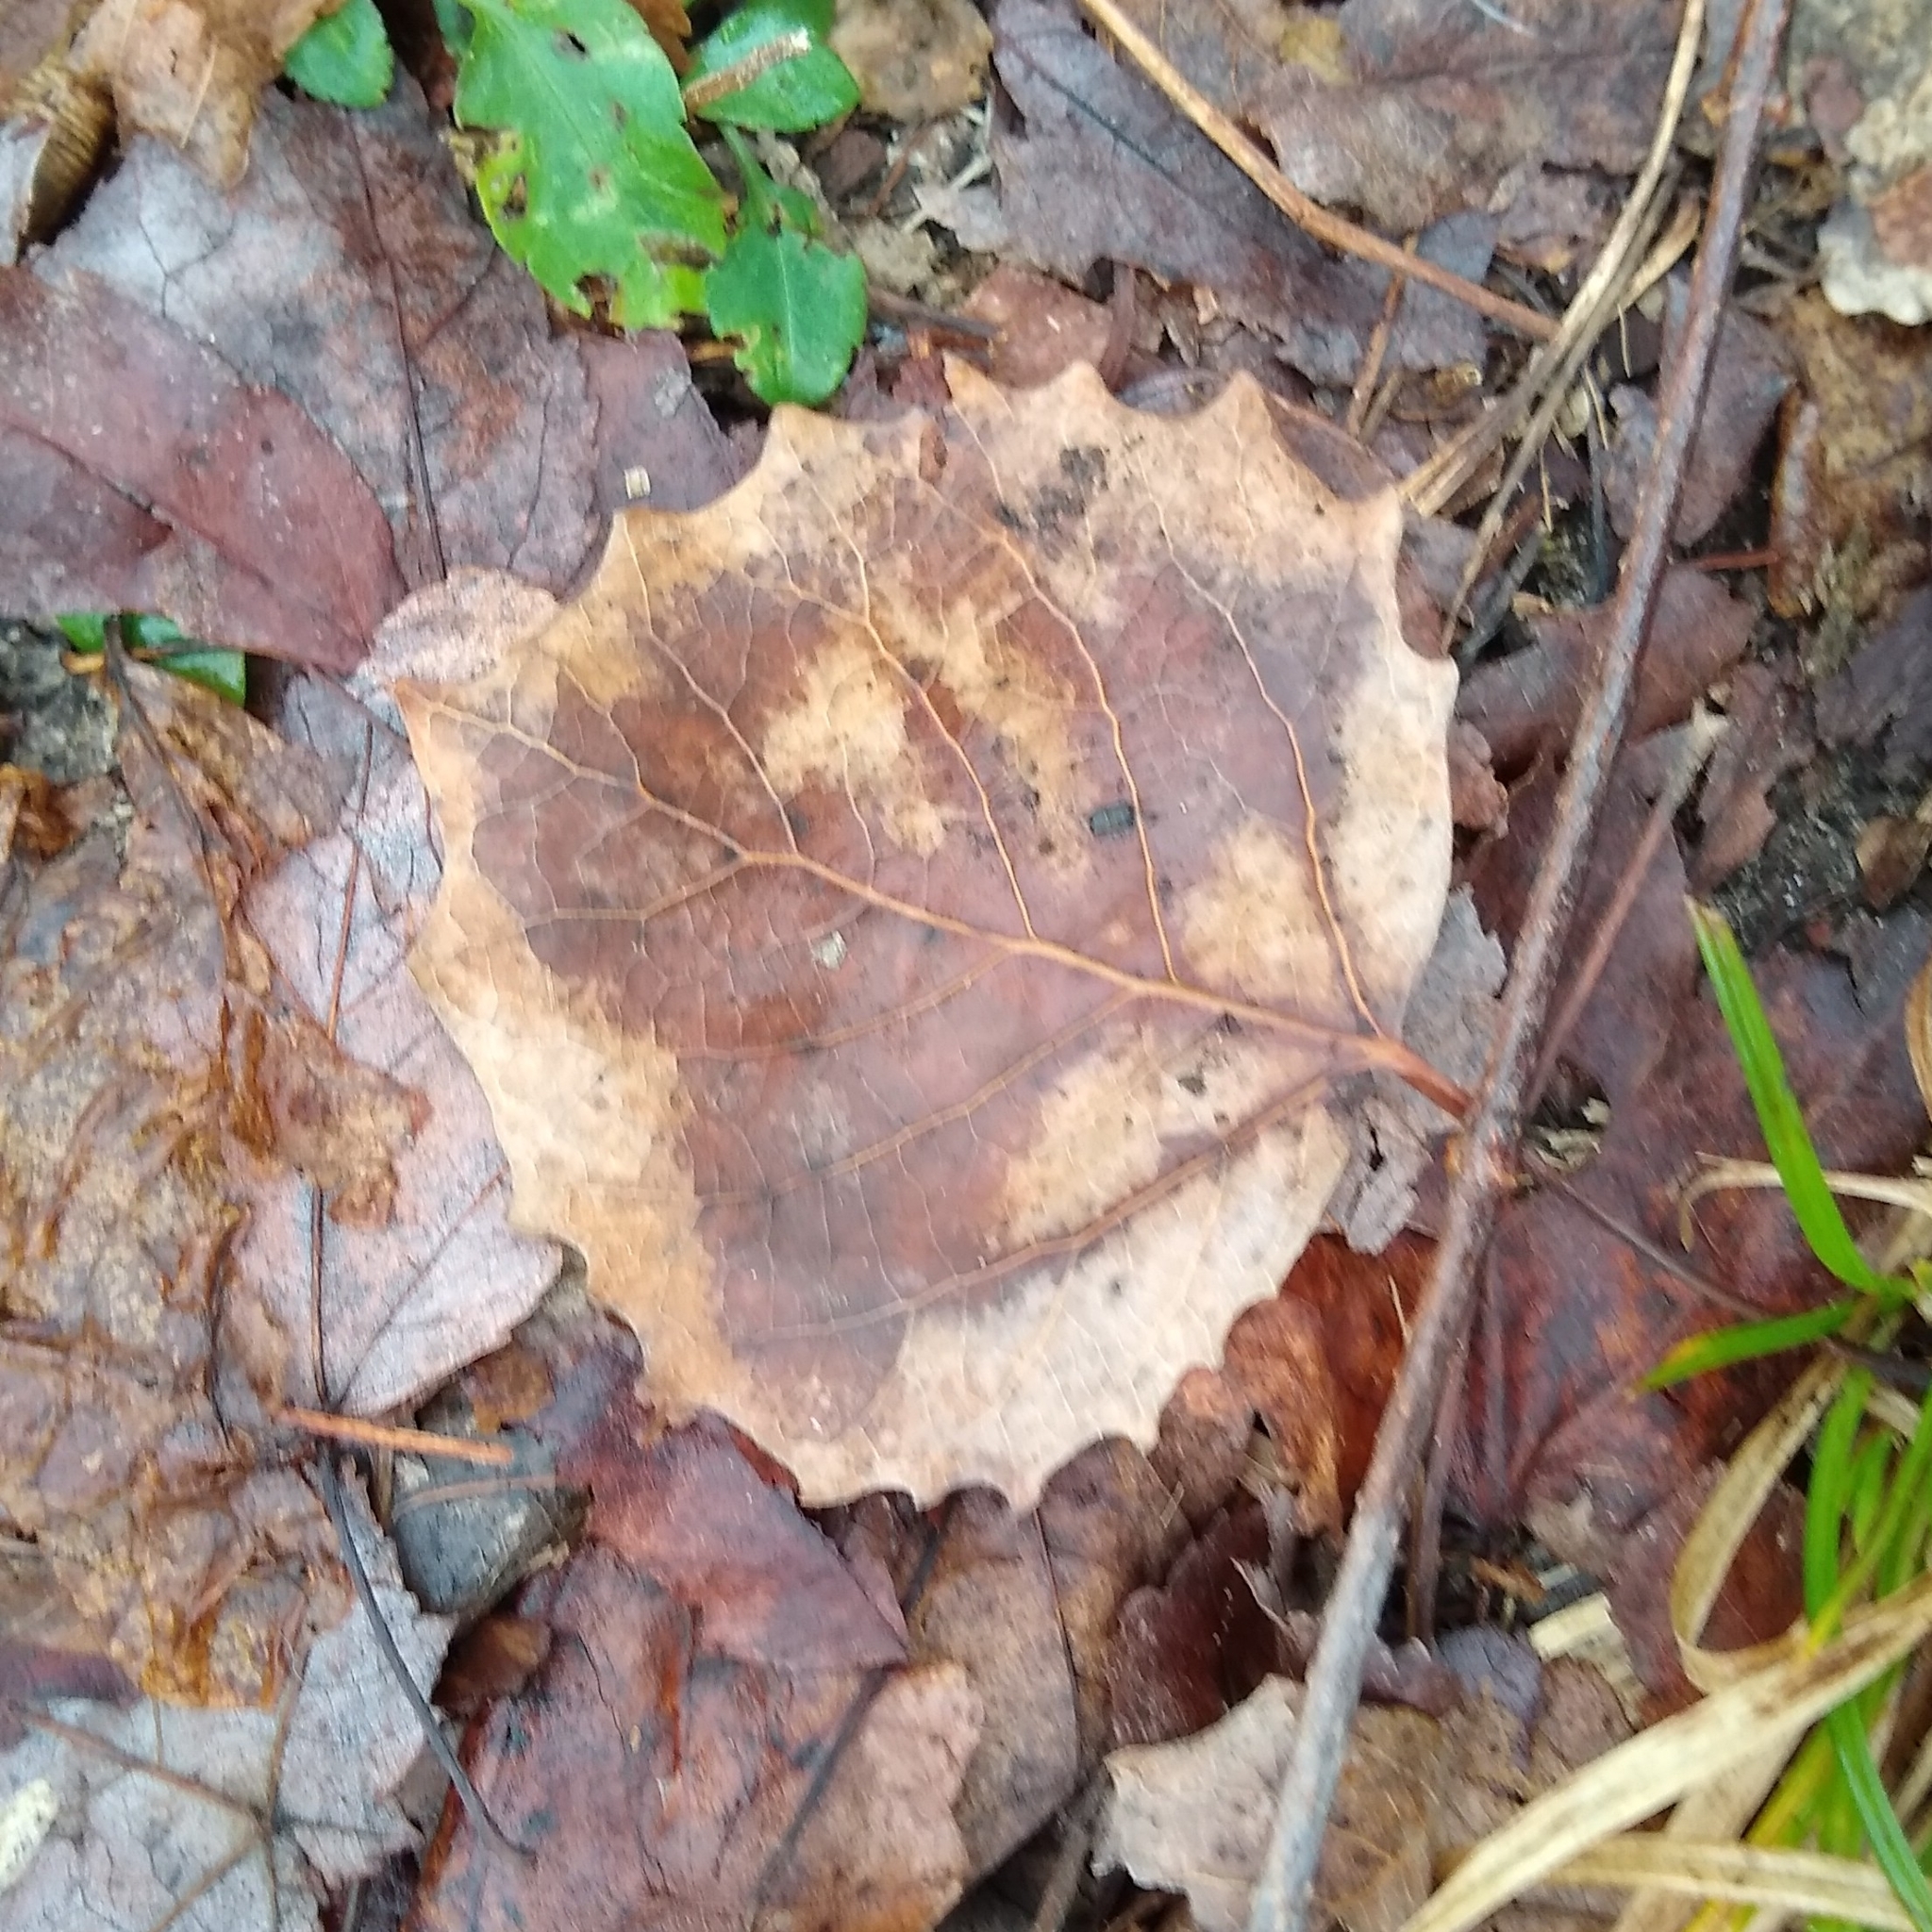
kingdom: Plantae
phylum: Tracheophyta
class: Magnoliopsida
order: Malpighiales
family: Salicaceae
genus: Populus
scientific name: Populus grandidentata
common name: Bigtooth aspen
